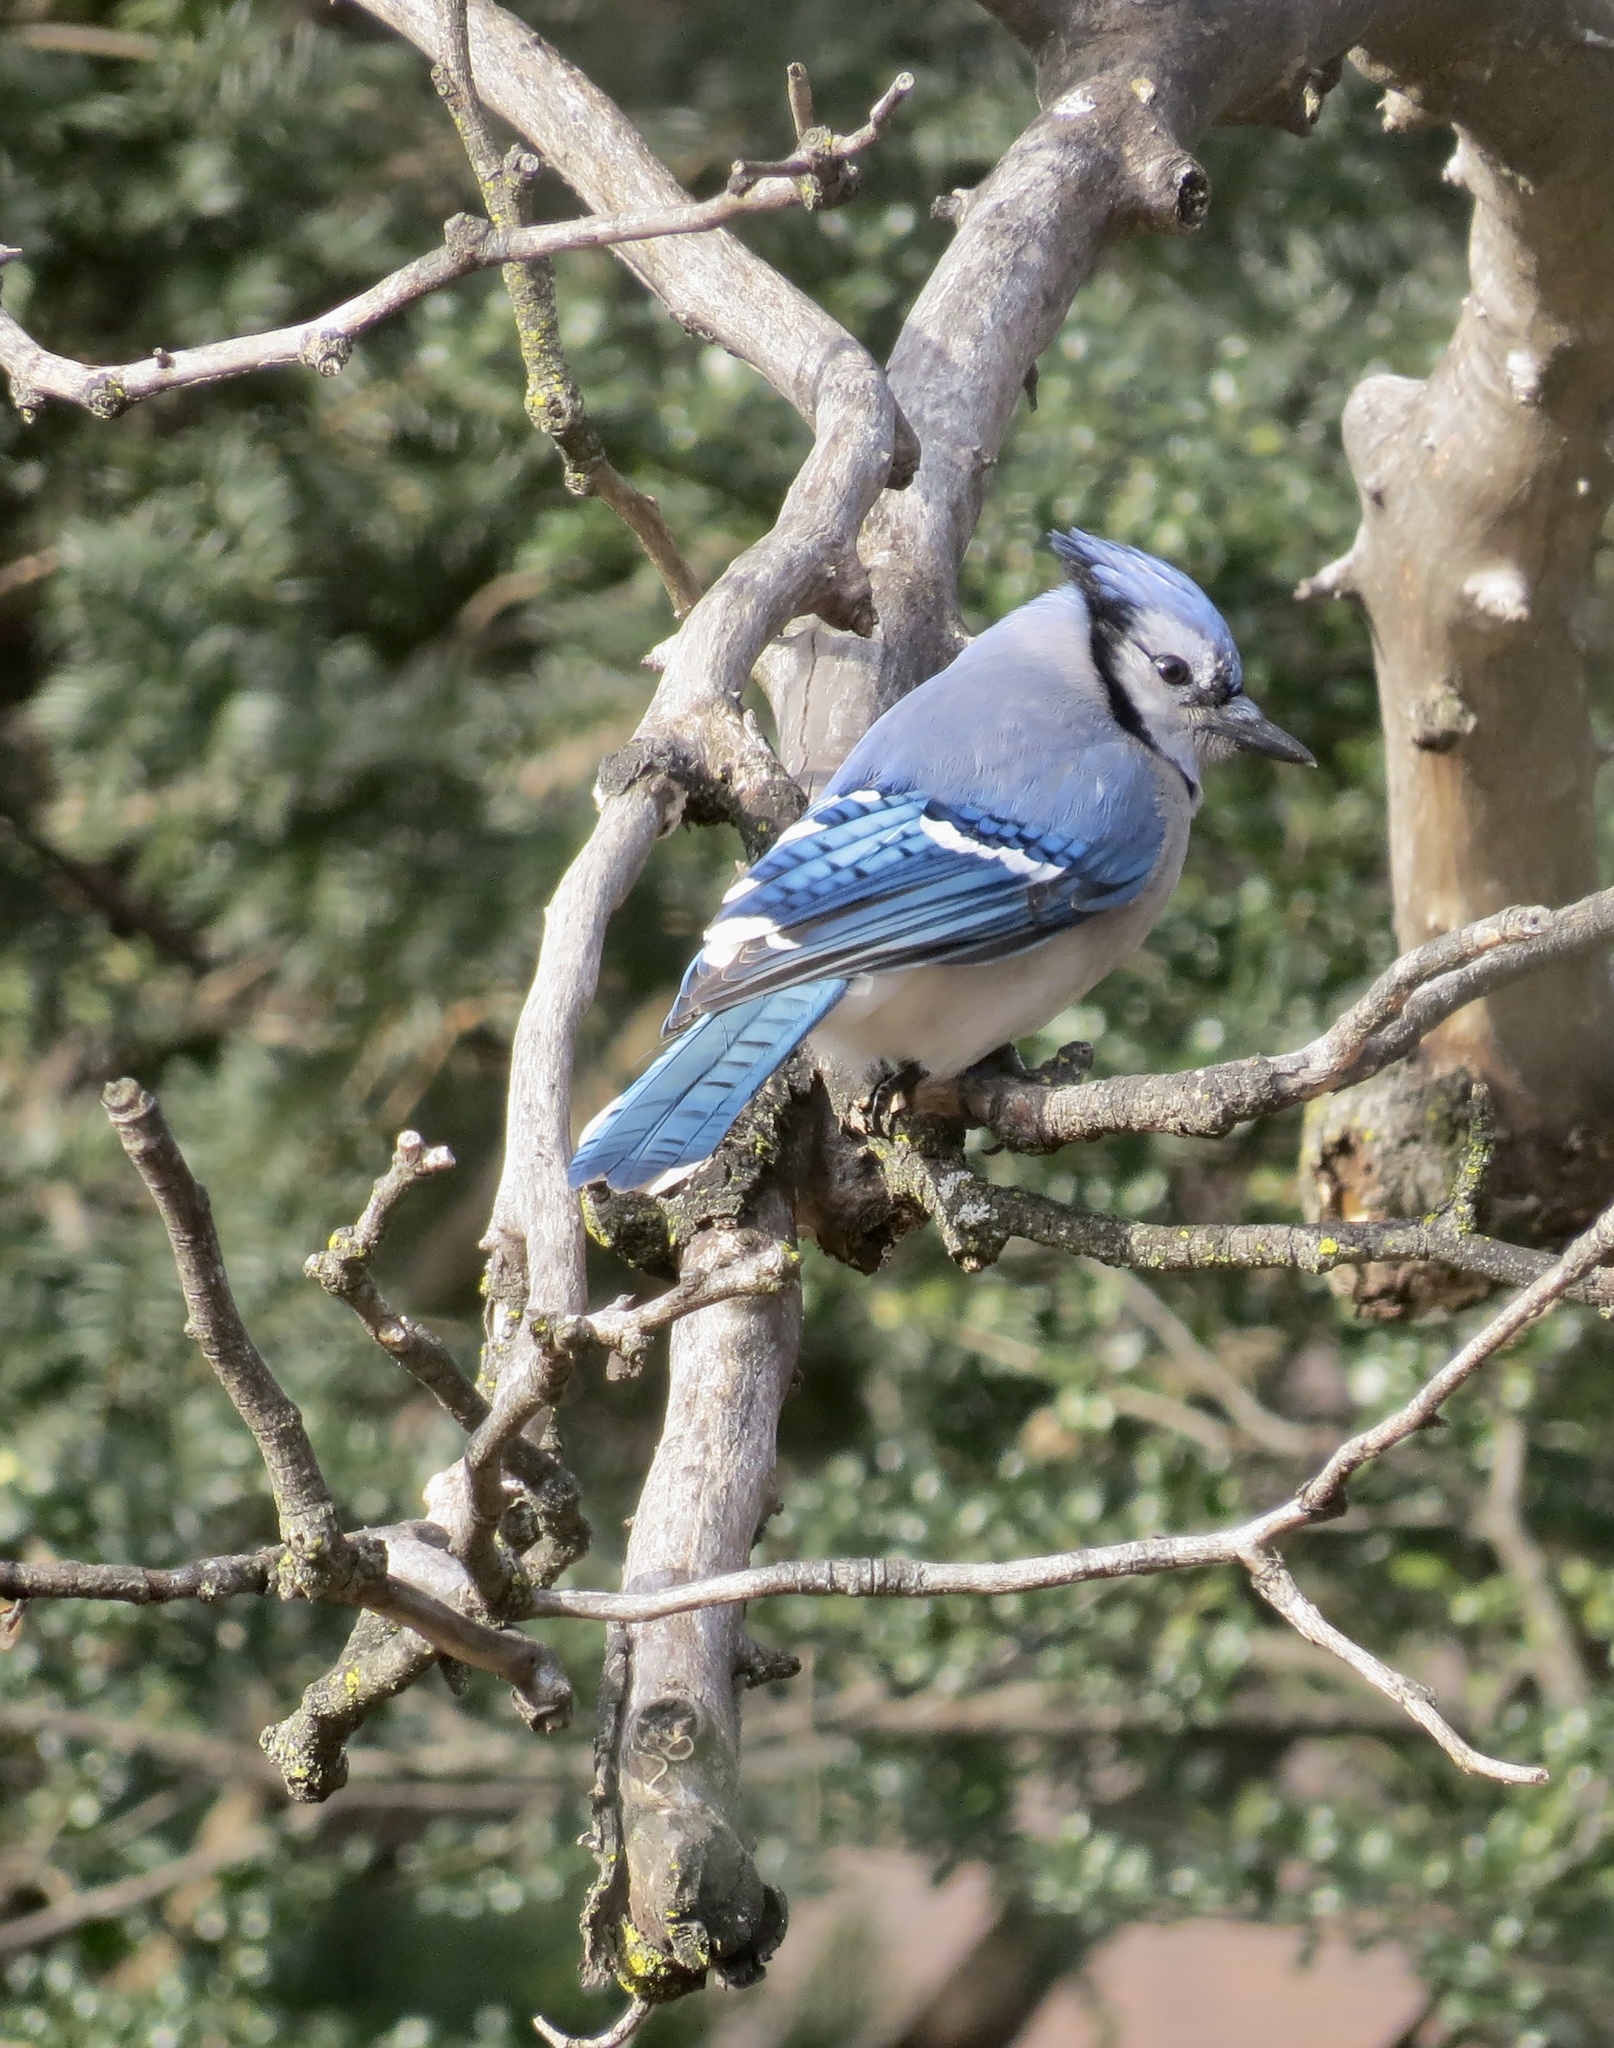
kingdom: Animalia
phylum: Chordata
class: Aves
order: Passeriformes
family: Corvidae
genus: Cyanocitta
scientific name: Cyanocitta cristata
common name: Blue jay
